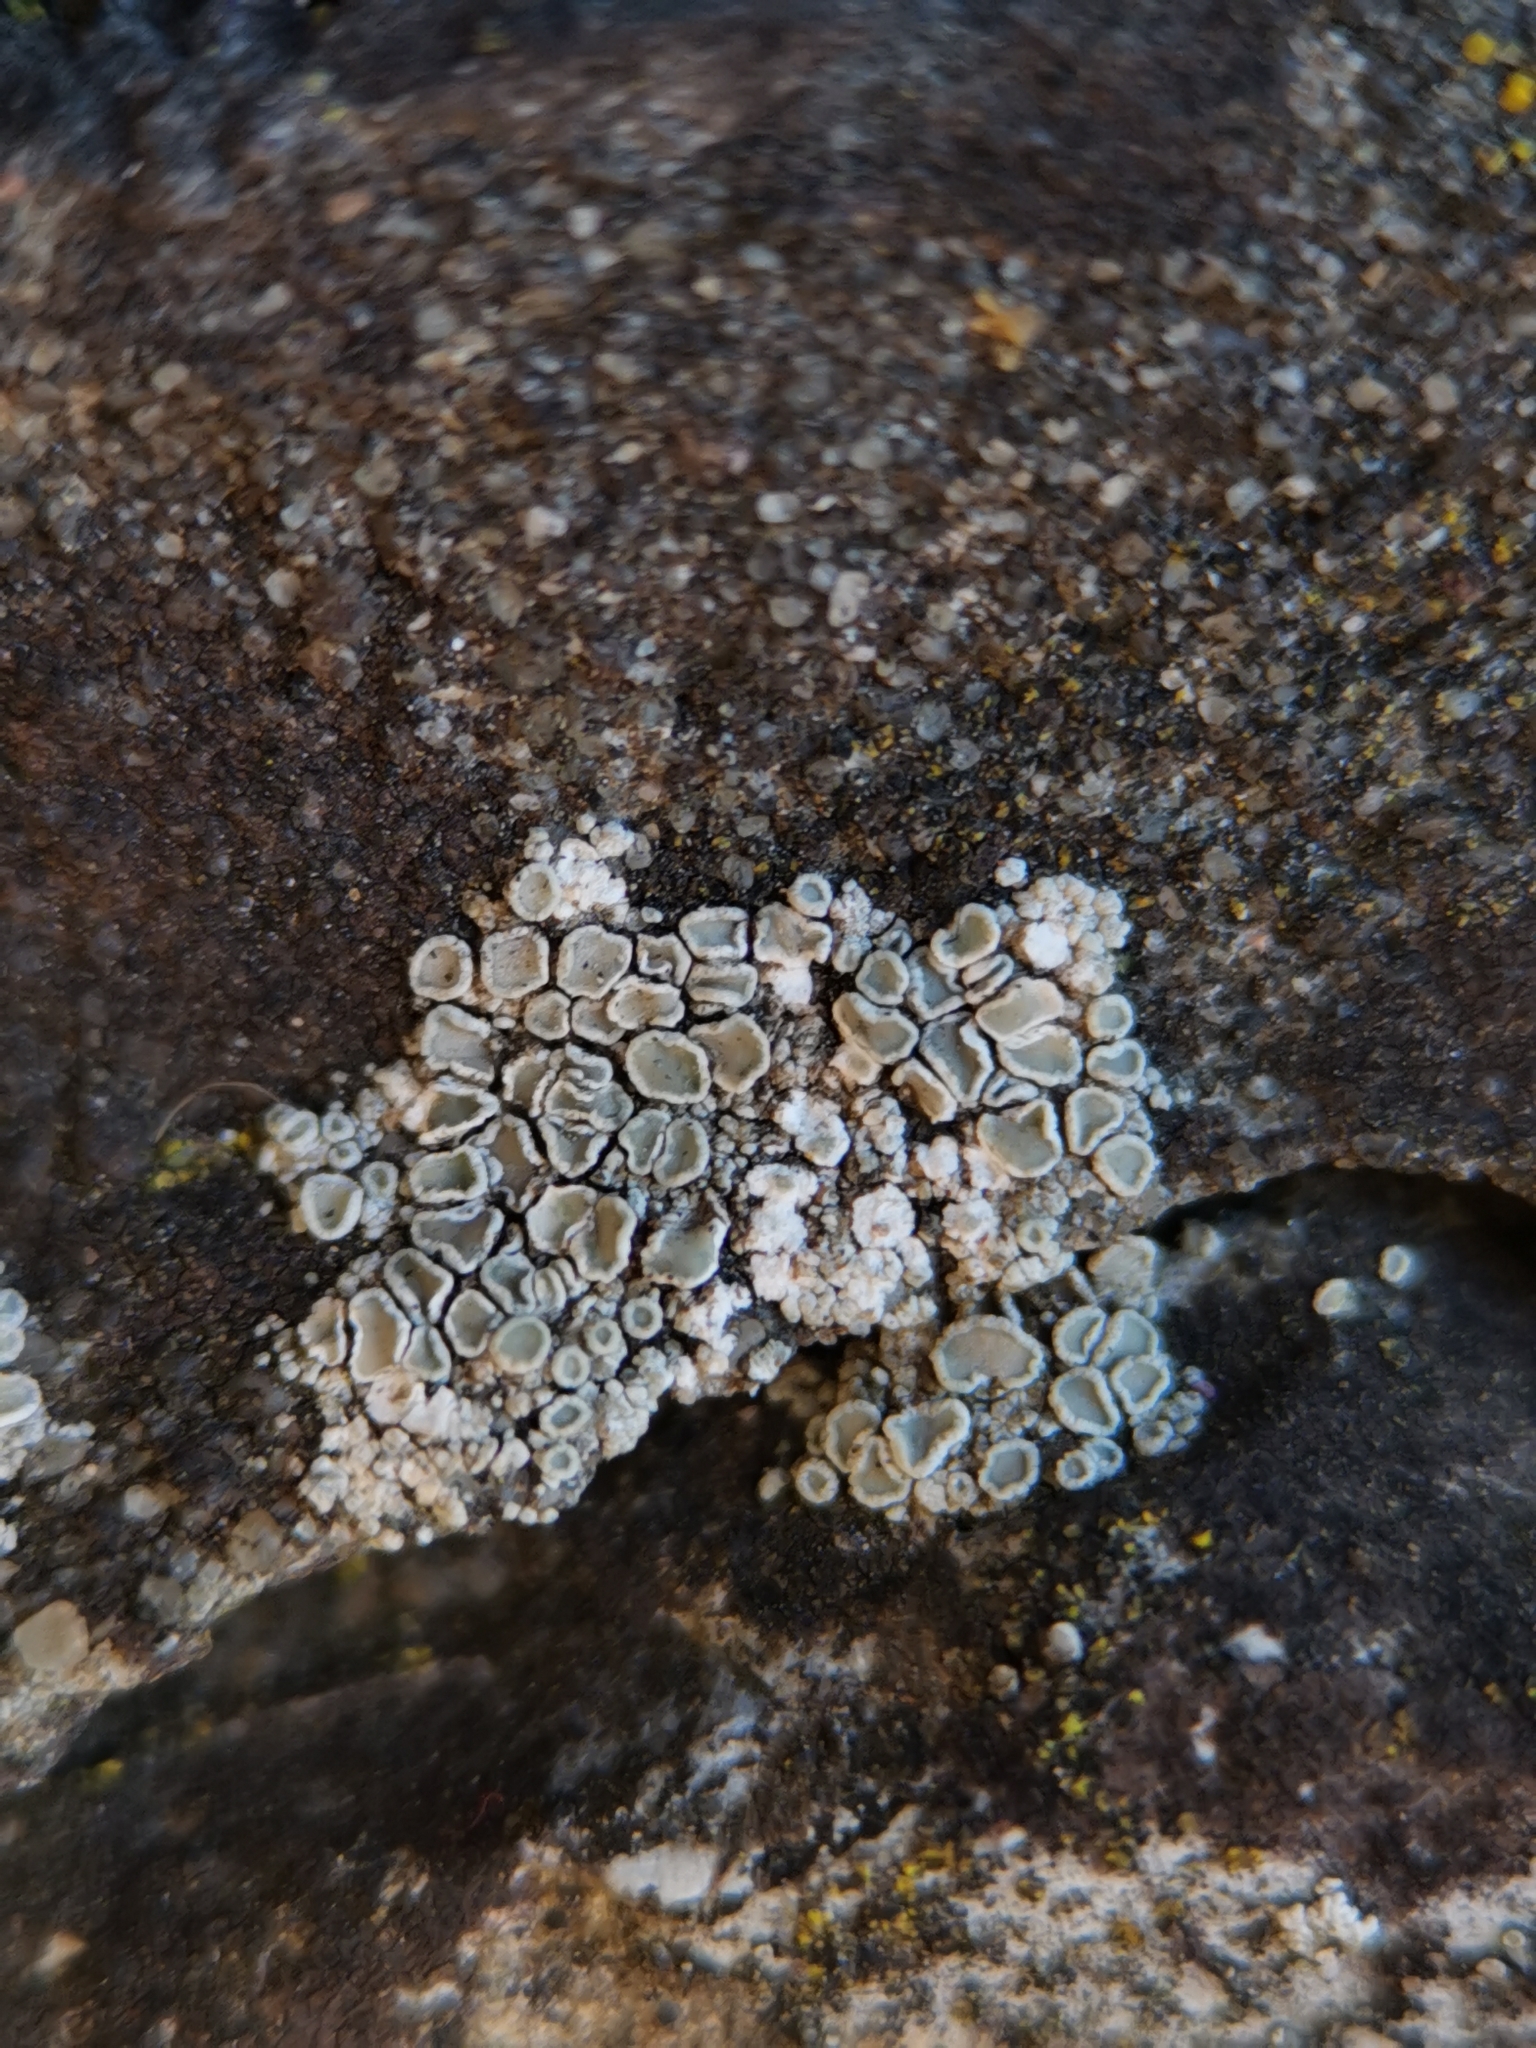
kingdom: Fungi
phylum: Ascomycota
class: Lecanoromycetes
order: Lecanorales
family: Lecanoraceae
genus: Polyozosia
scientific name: Polyozosia albescens
